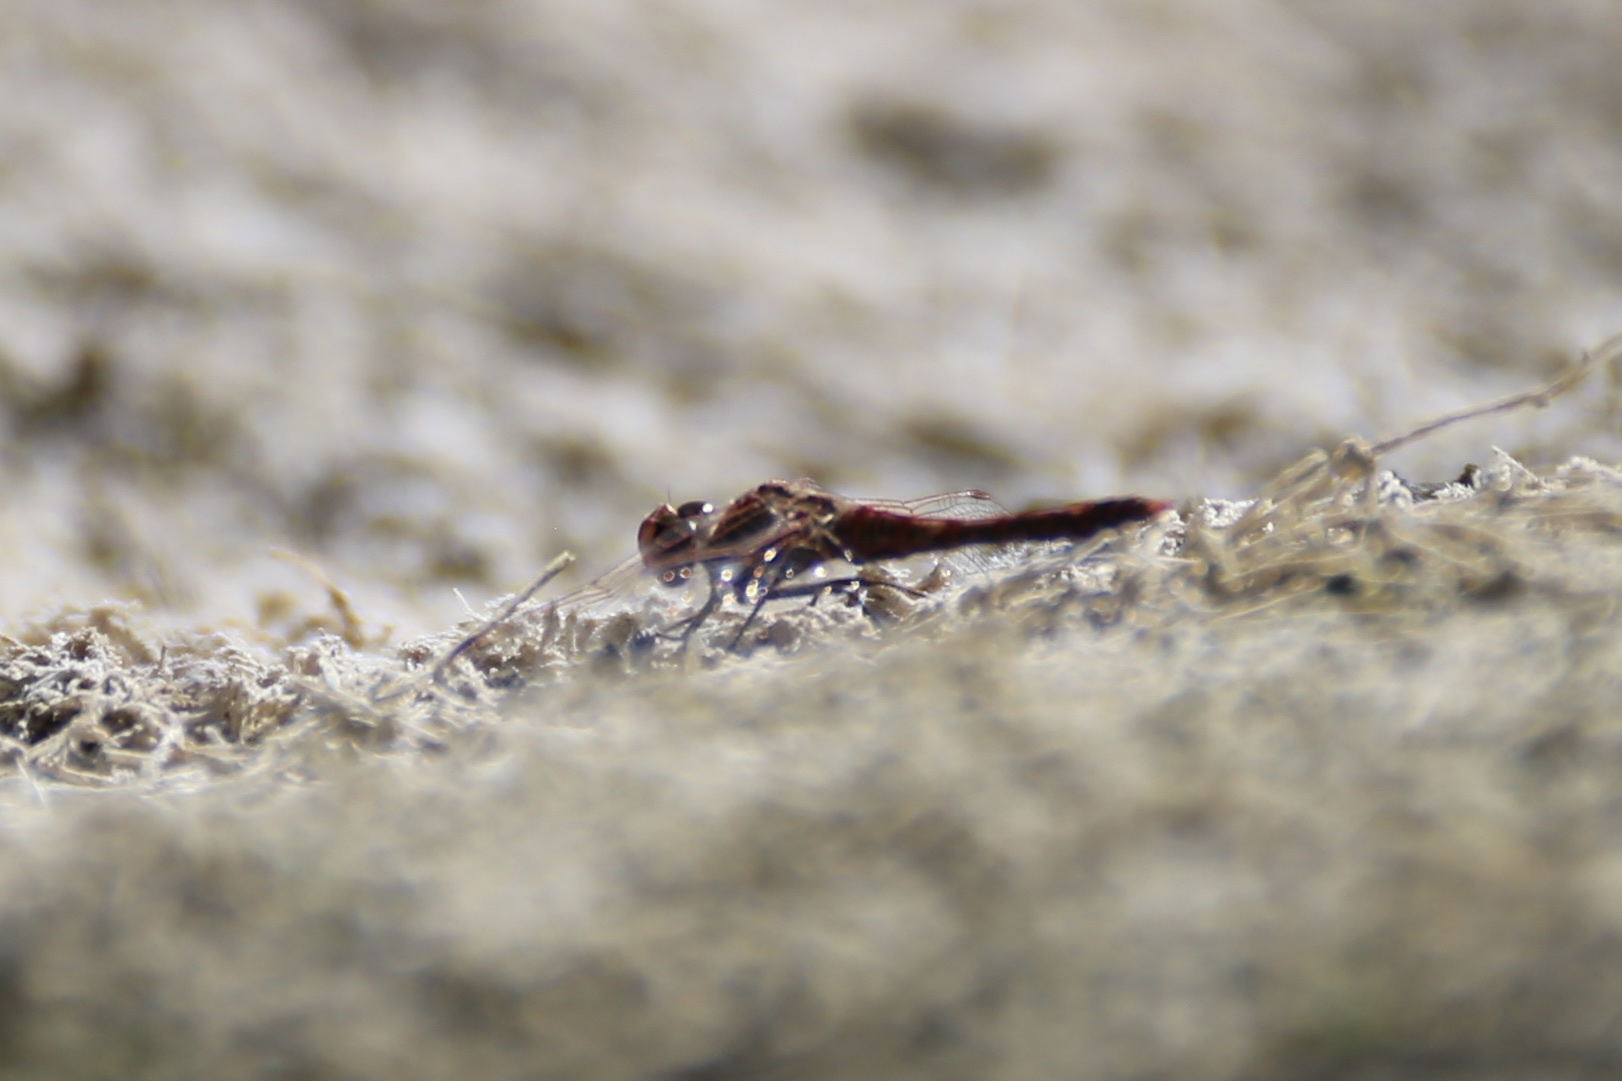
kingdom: Animalia
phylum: Arthropoda
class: Insecta
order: Odonata
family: Libellulidae
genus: Sympetrum
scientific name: Sympetrum corruptum
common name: Variegated meadowhawk
